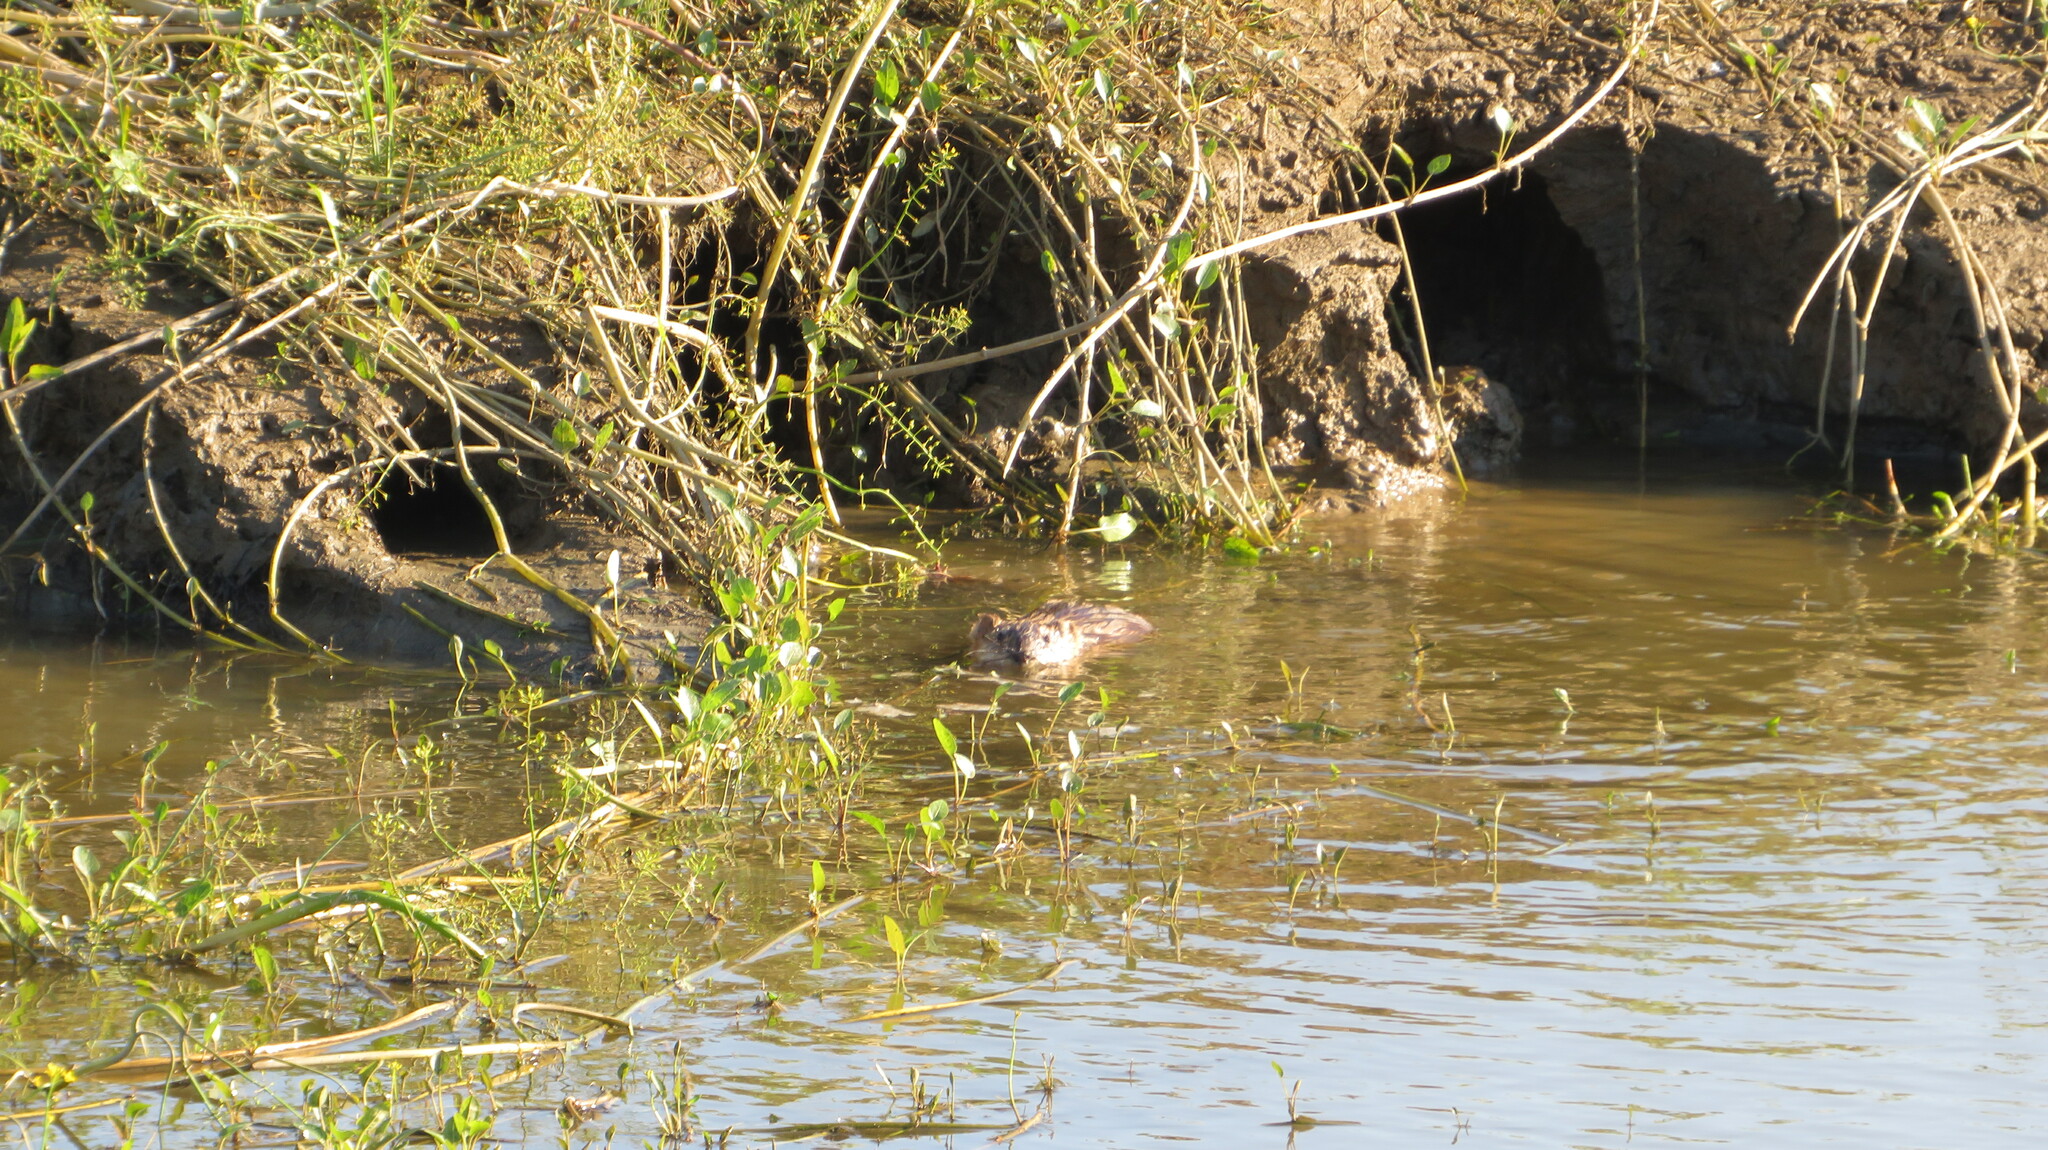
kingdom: Animalia
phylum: Chordata
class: Mammalia
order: Rodentia
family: Cricetidae
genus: Ondatra
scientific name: Ondatra zibethicus
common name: Muskrat
